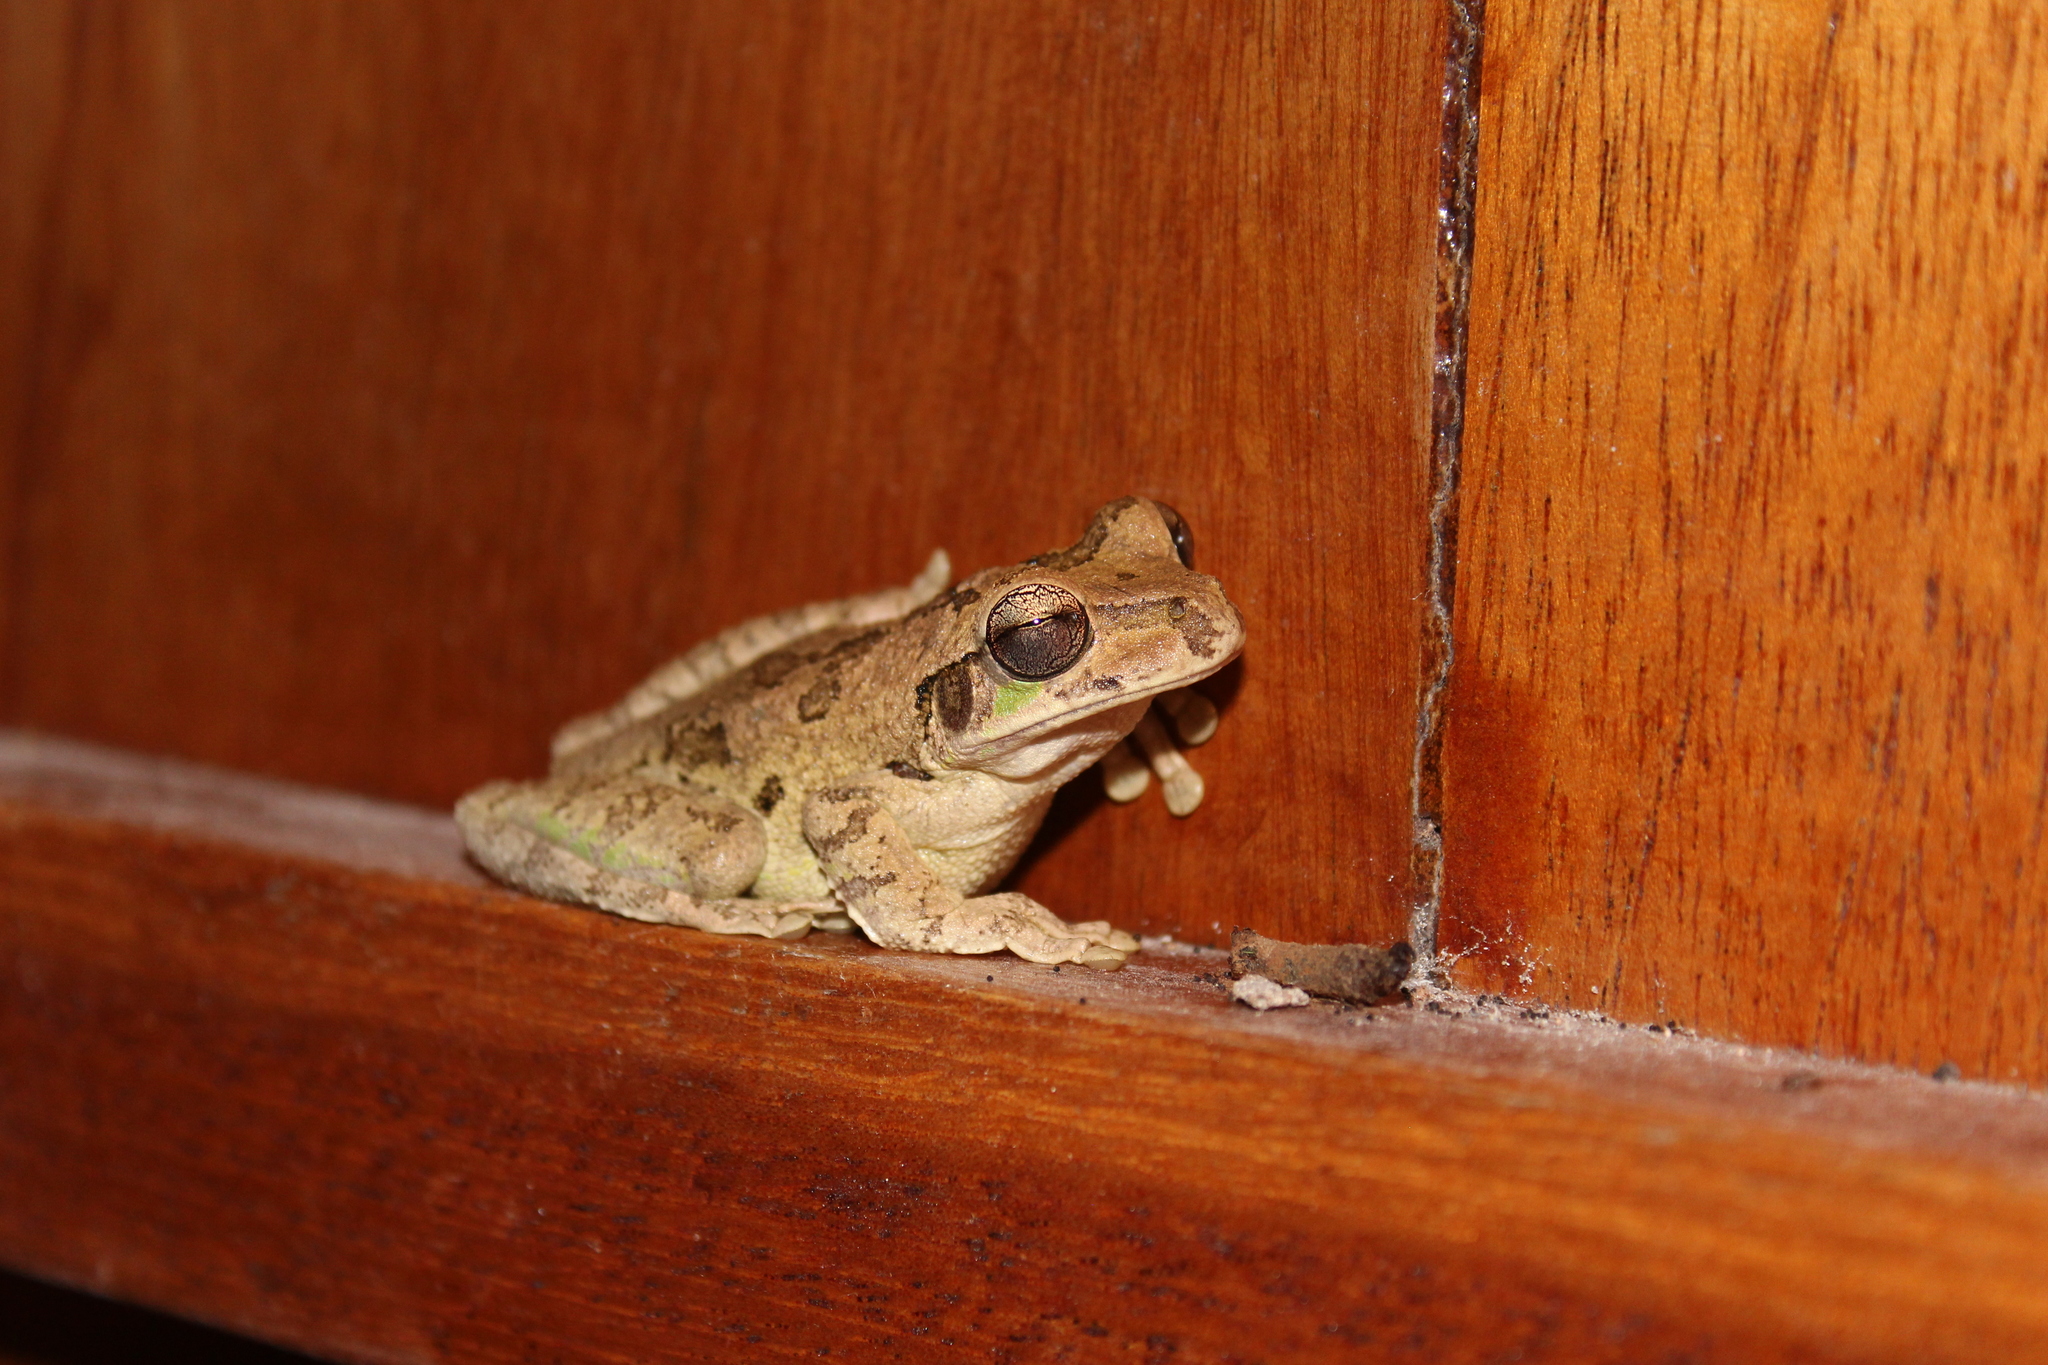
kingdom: Animalia
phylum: Chordata
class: Amphibia
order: Anura
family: Hylidae
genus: Smilisca
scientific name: Smilisca baudinii
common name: Mexican smilisca
